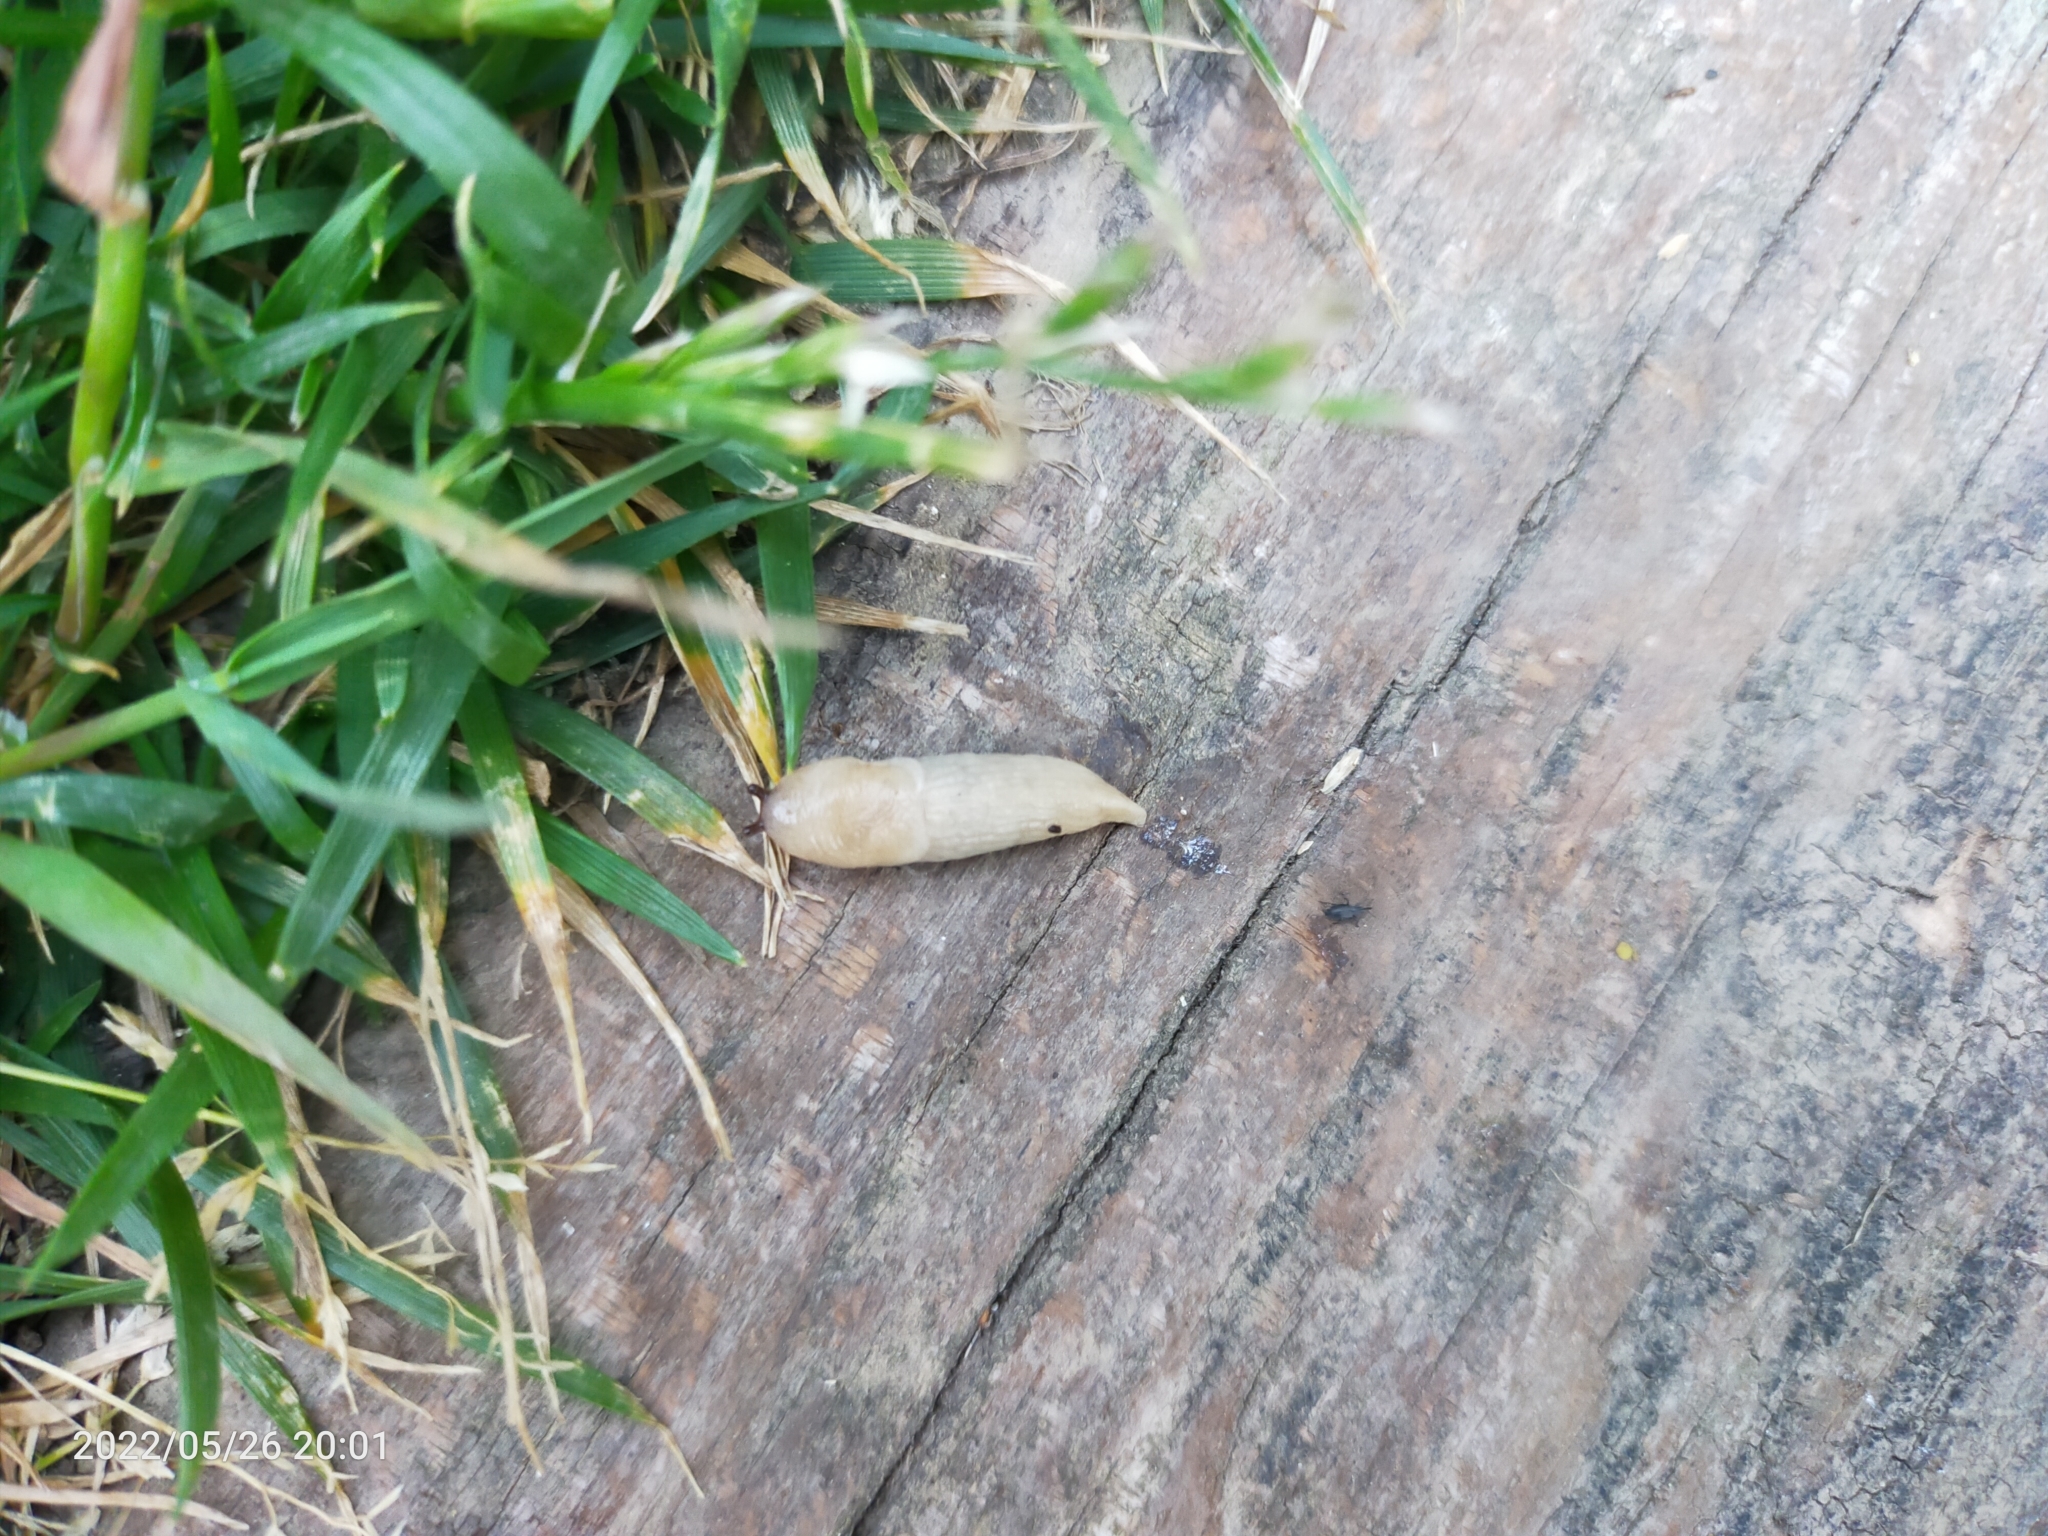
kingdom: Animalia
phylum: Mollusca
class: Gastropoda
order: Stylommatophora
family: Agriolimacidae
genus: Deroceras
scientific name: Deroceras
